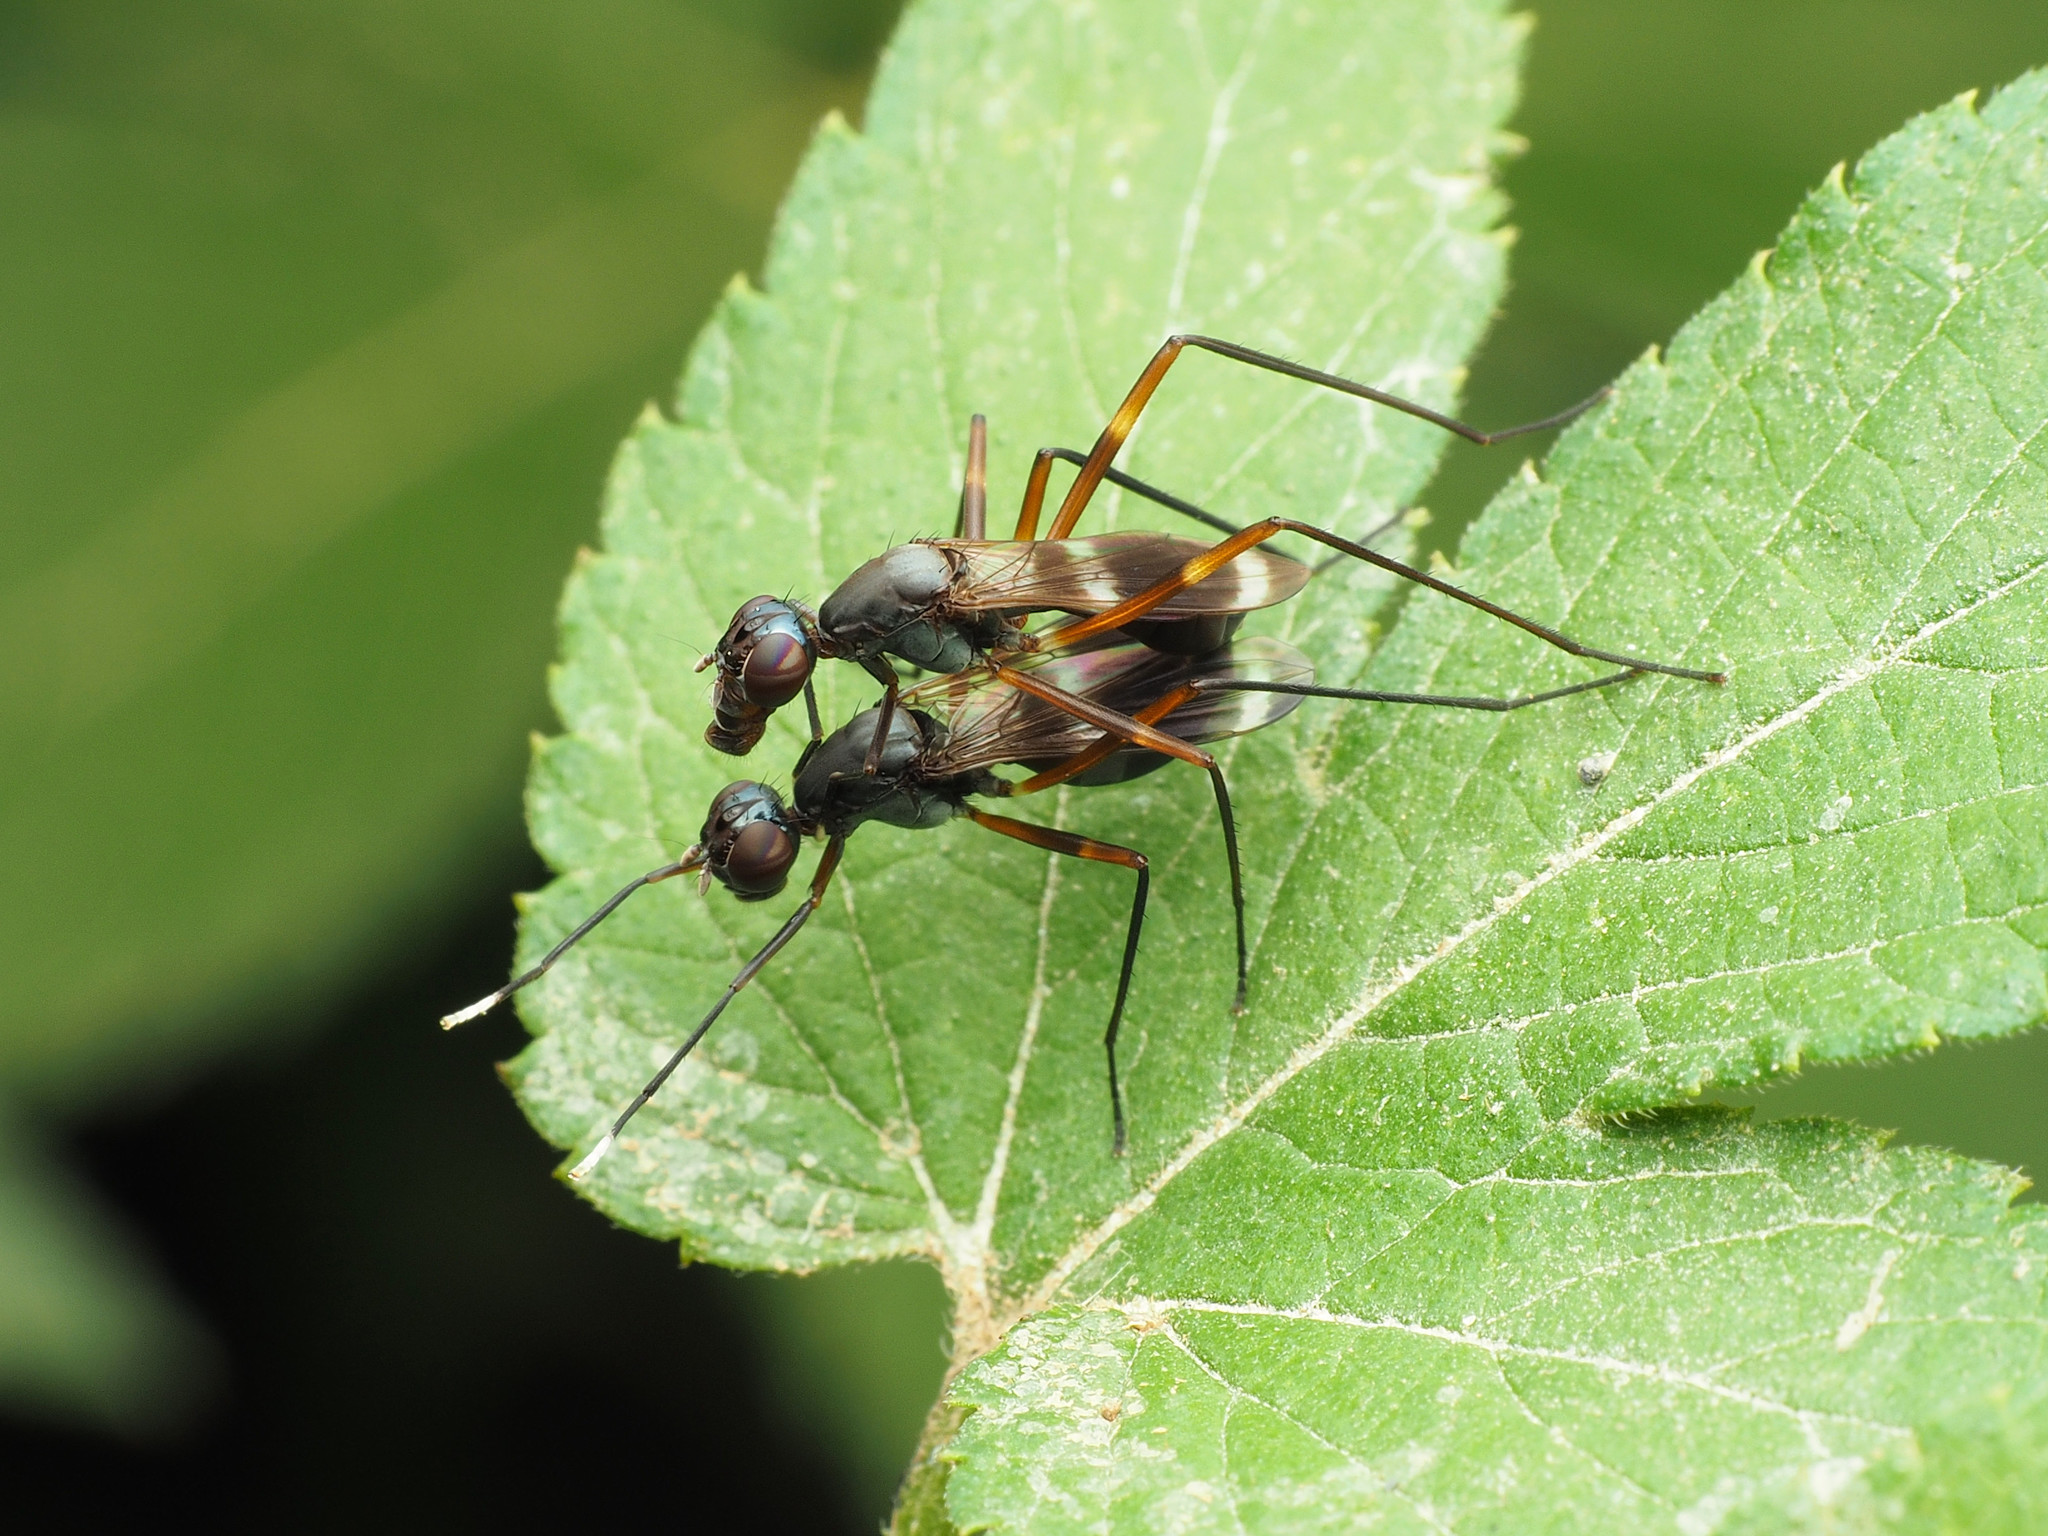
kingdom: Animalia
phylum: Arthropoda
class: Insecta
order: Diptera
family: Micropezidae
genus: Taeniaptera
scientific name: Taeniaptera trivittata
